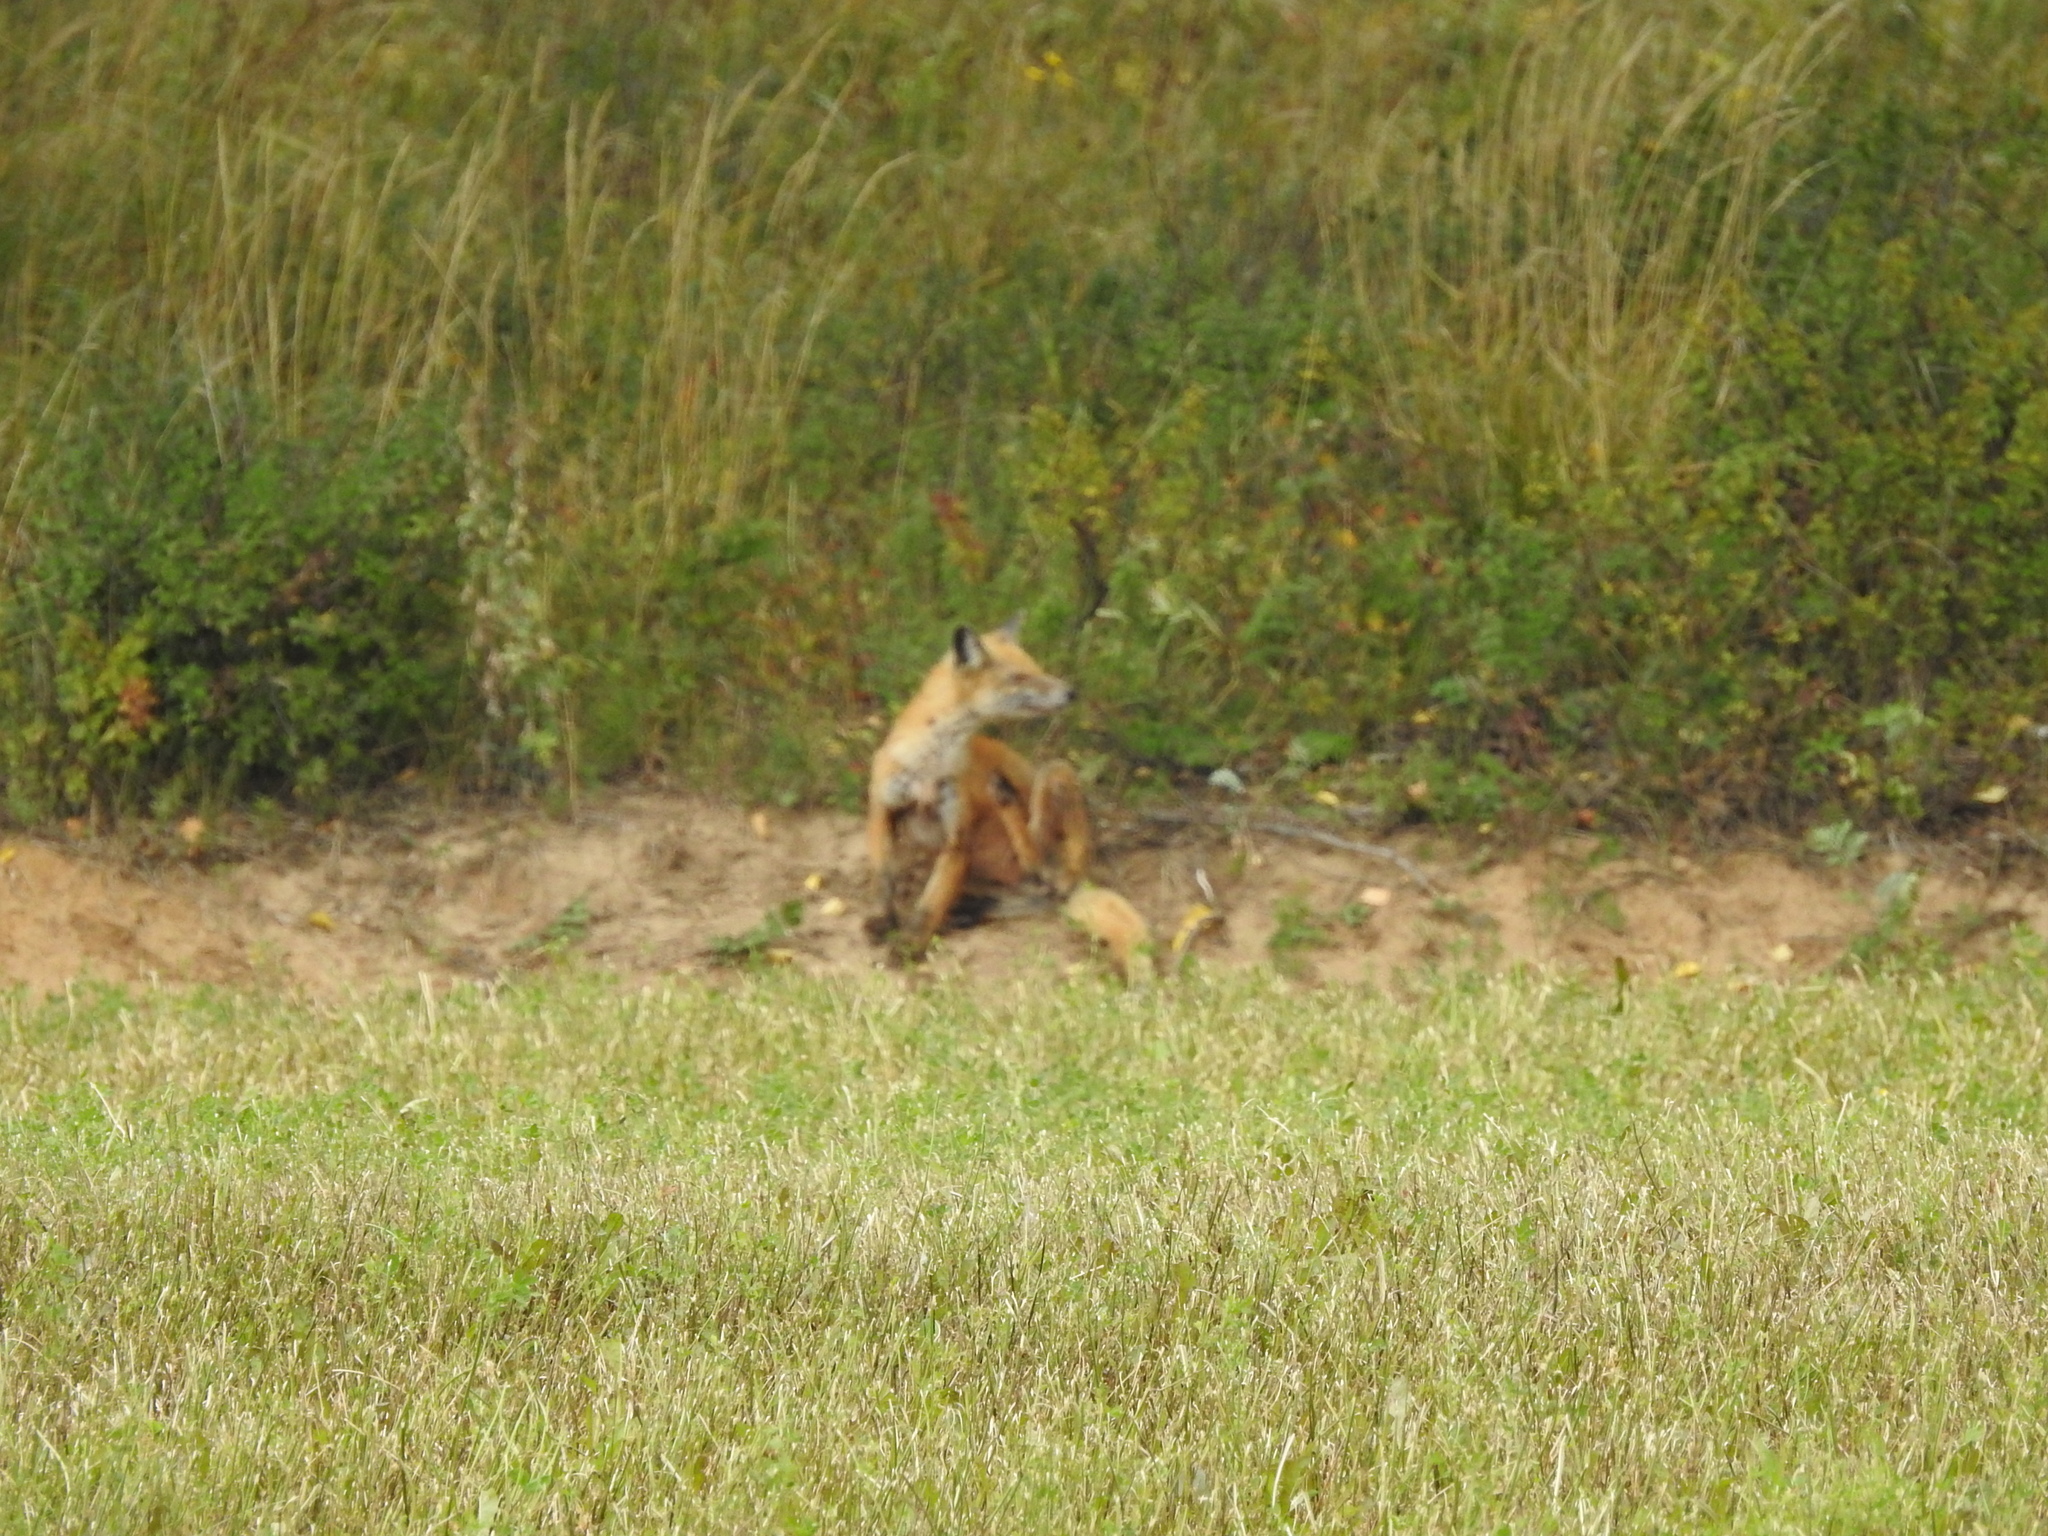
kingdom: Animalia
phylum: Chordata
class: Mammalia
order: Carnivora
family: Canidae
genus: Vulpes
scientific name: Vulpes vulpes
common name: Red fox
